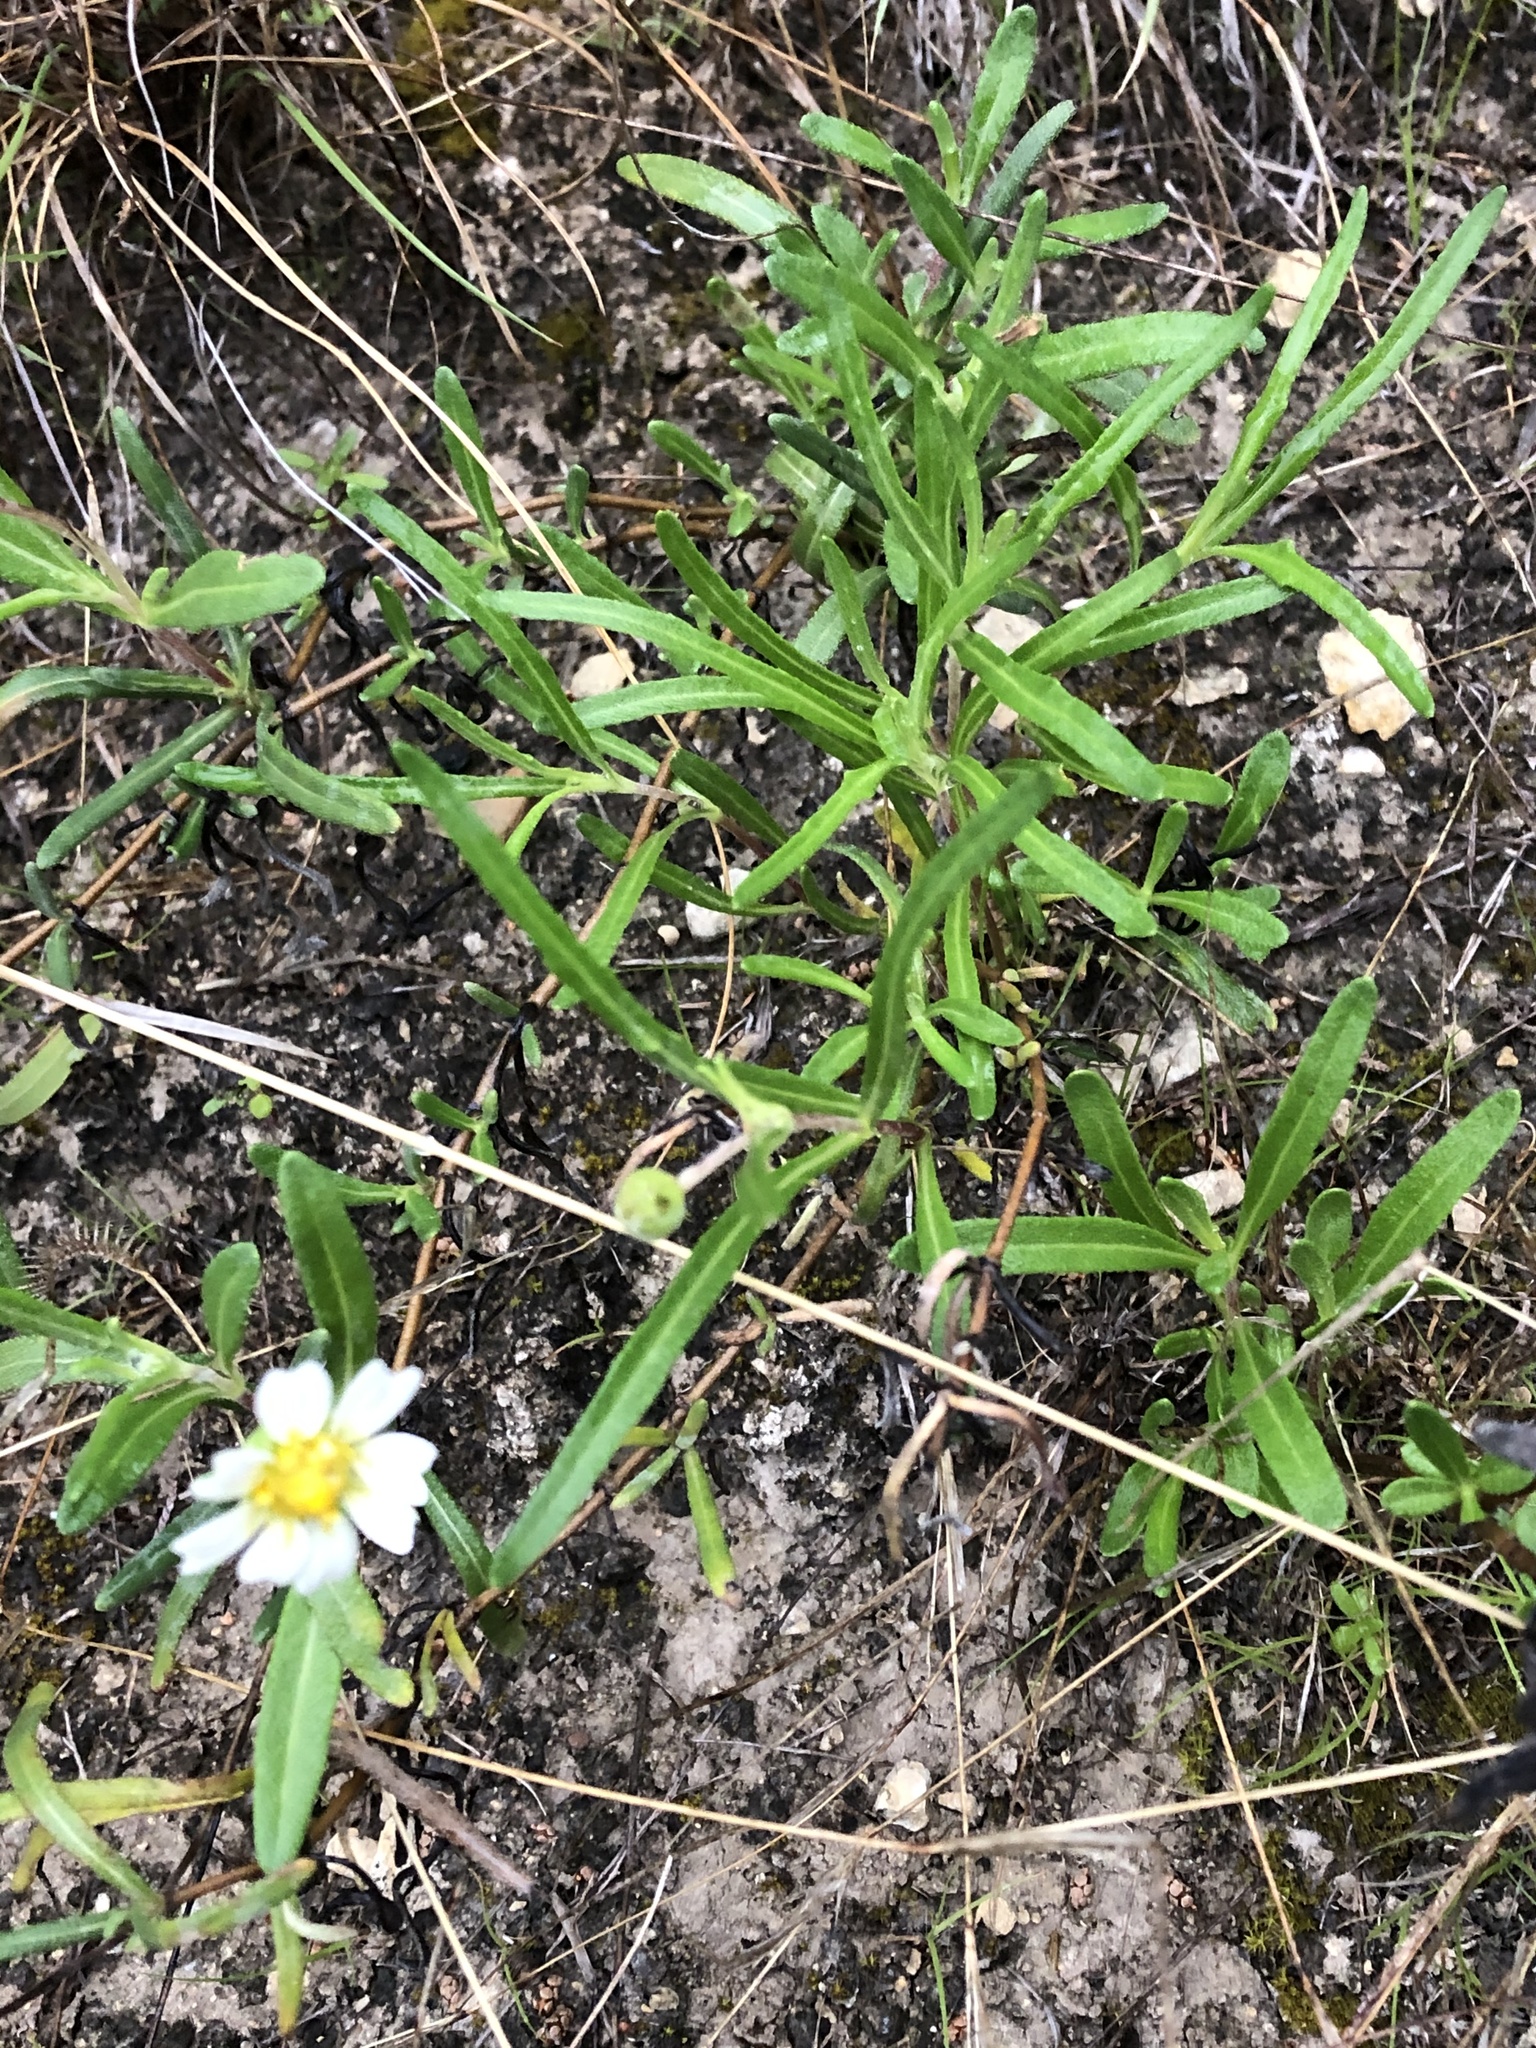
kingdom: Plantae
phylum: Tracheophyta
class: Magnoliopsida
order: Asterales
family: Asteraceae
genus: Melampodium
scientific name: Melampodium leucanthum
